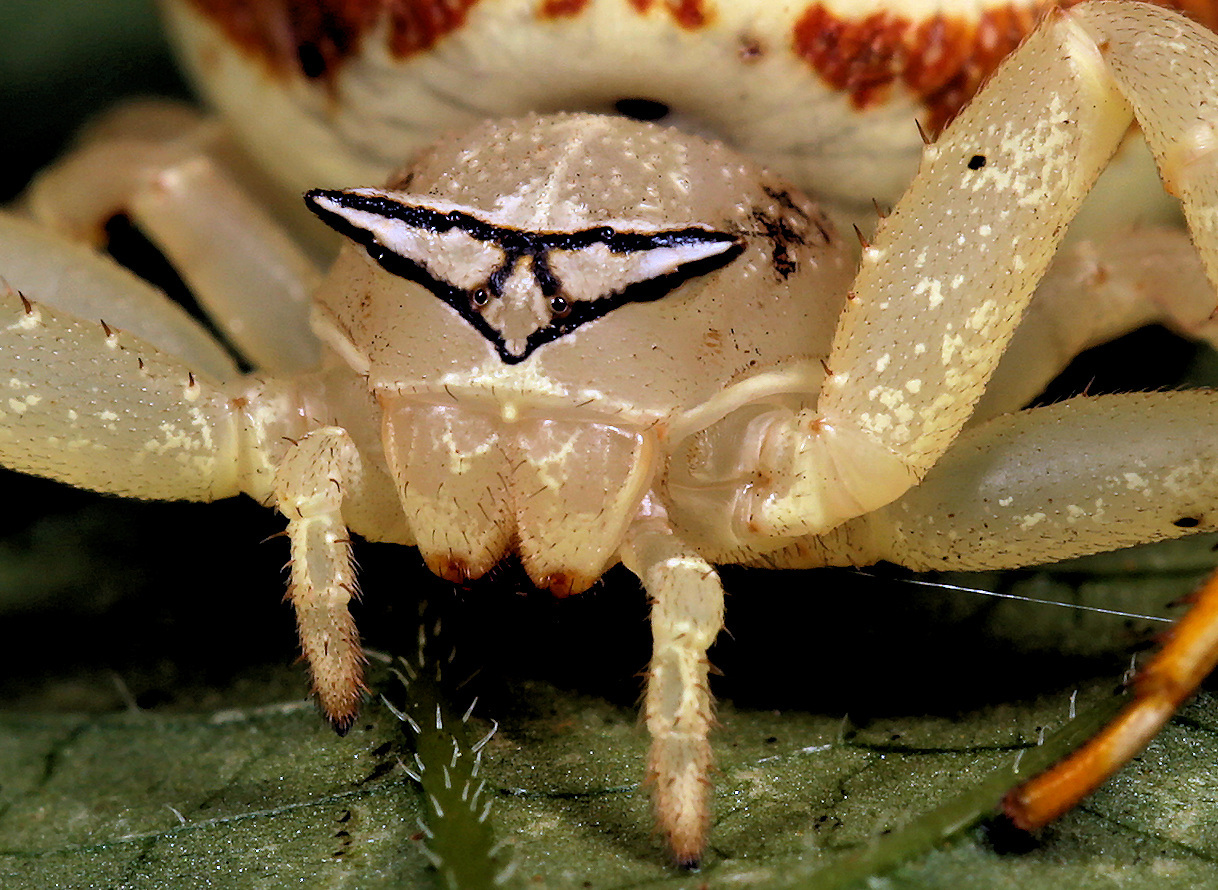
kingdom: Animalia
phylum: Arthropoda
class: Arachnida
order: Araneae
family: Thomisidae
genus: Thomisus
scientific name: Thomisus blandus
